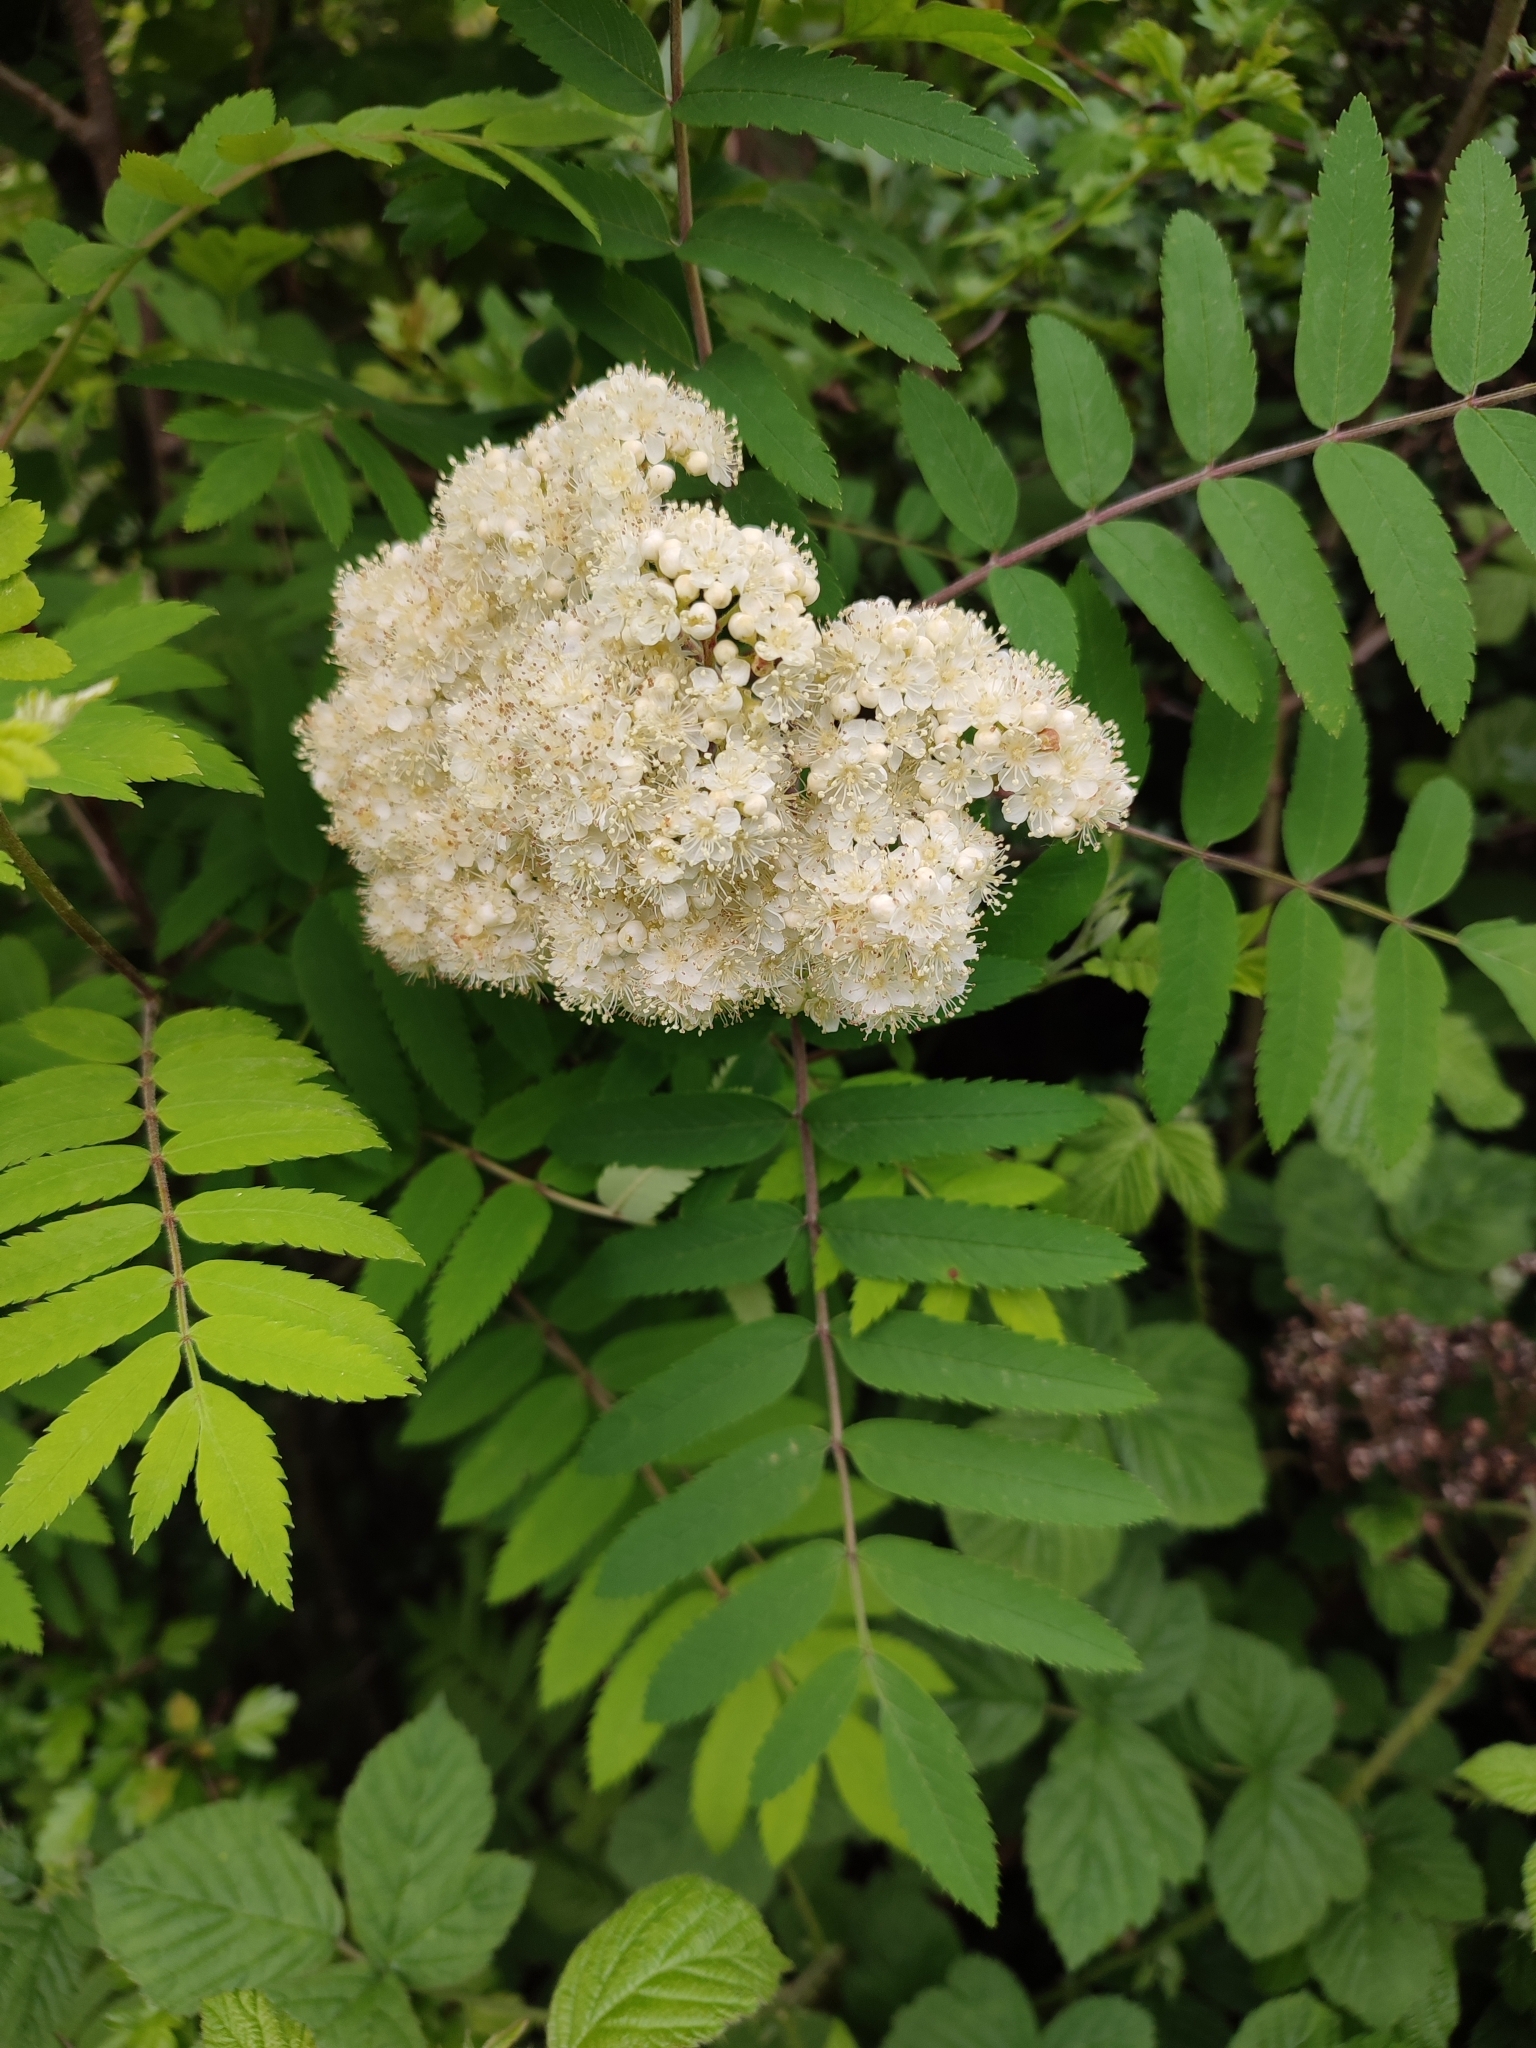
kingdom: Plantae
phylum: Tracheophyta
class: Magnoliopsida
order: Rosales
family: Rosaceae
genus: Sorbus
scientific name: Sorbus aucuparia
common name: Rowan
